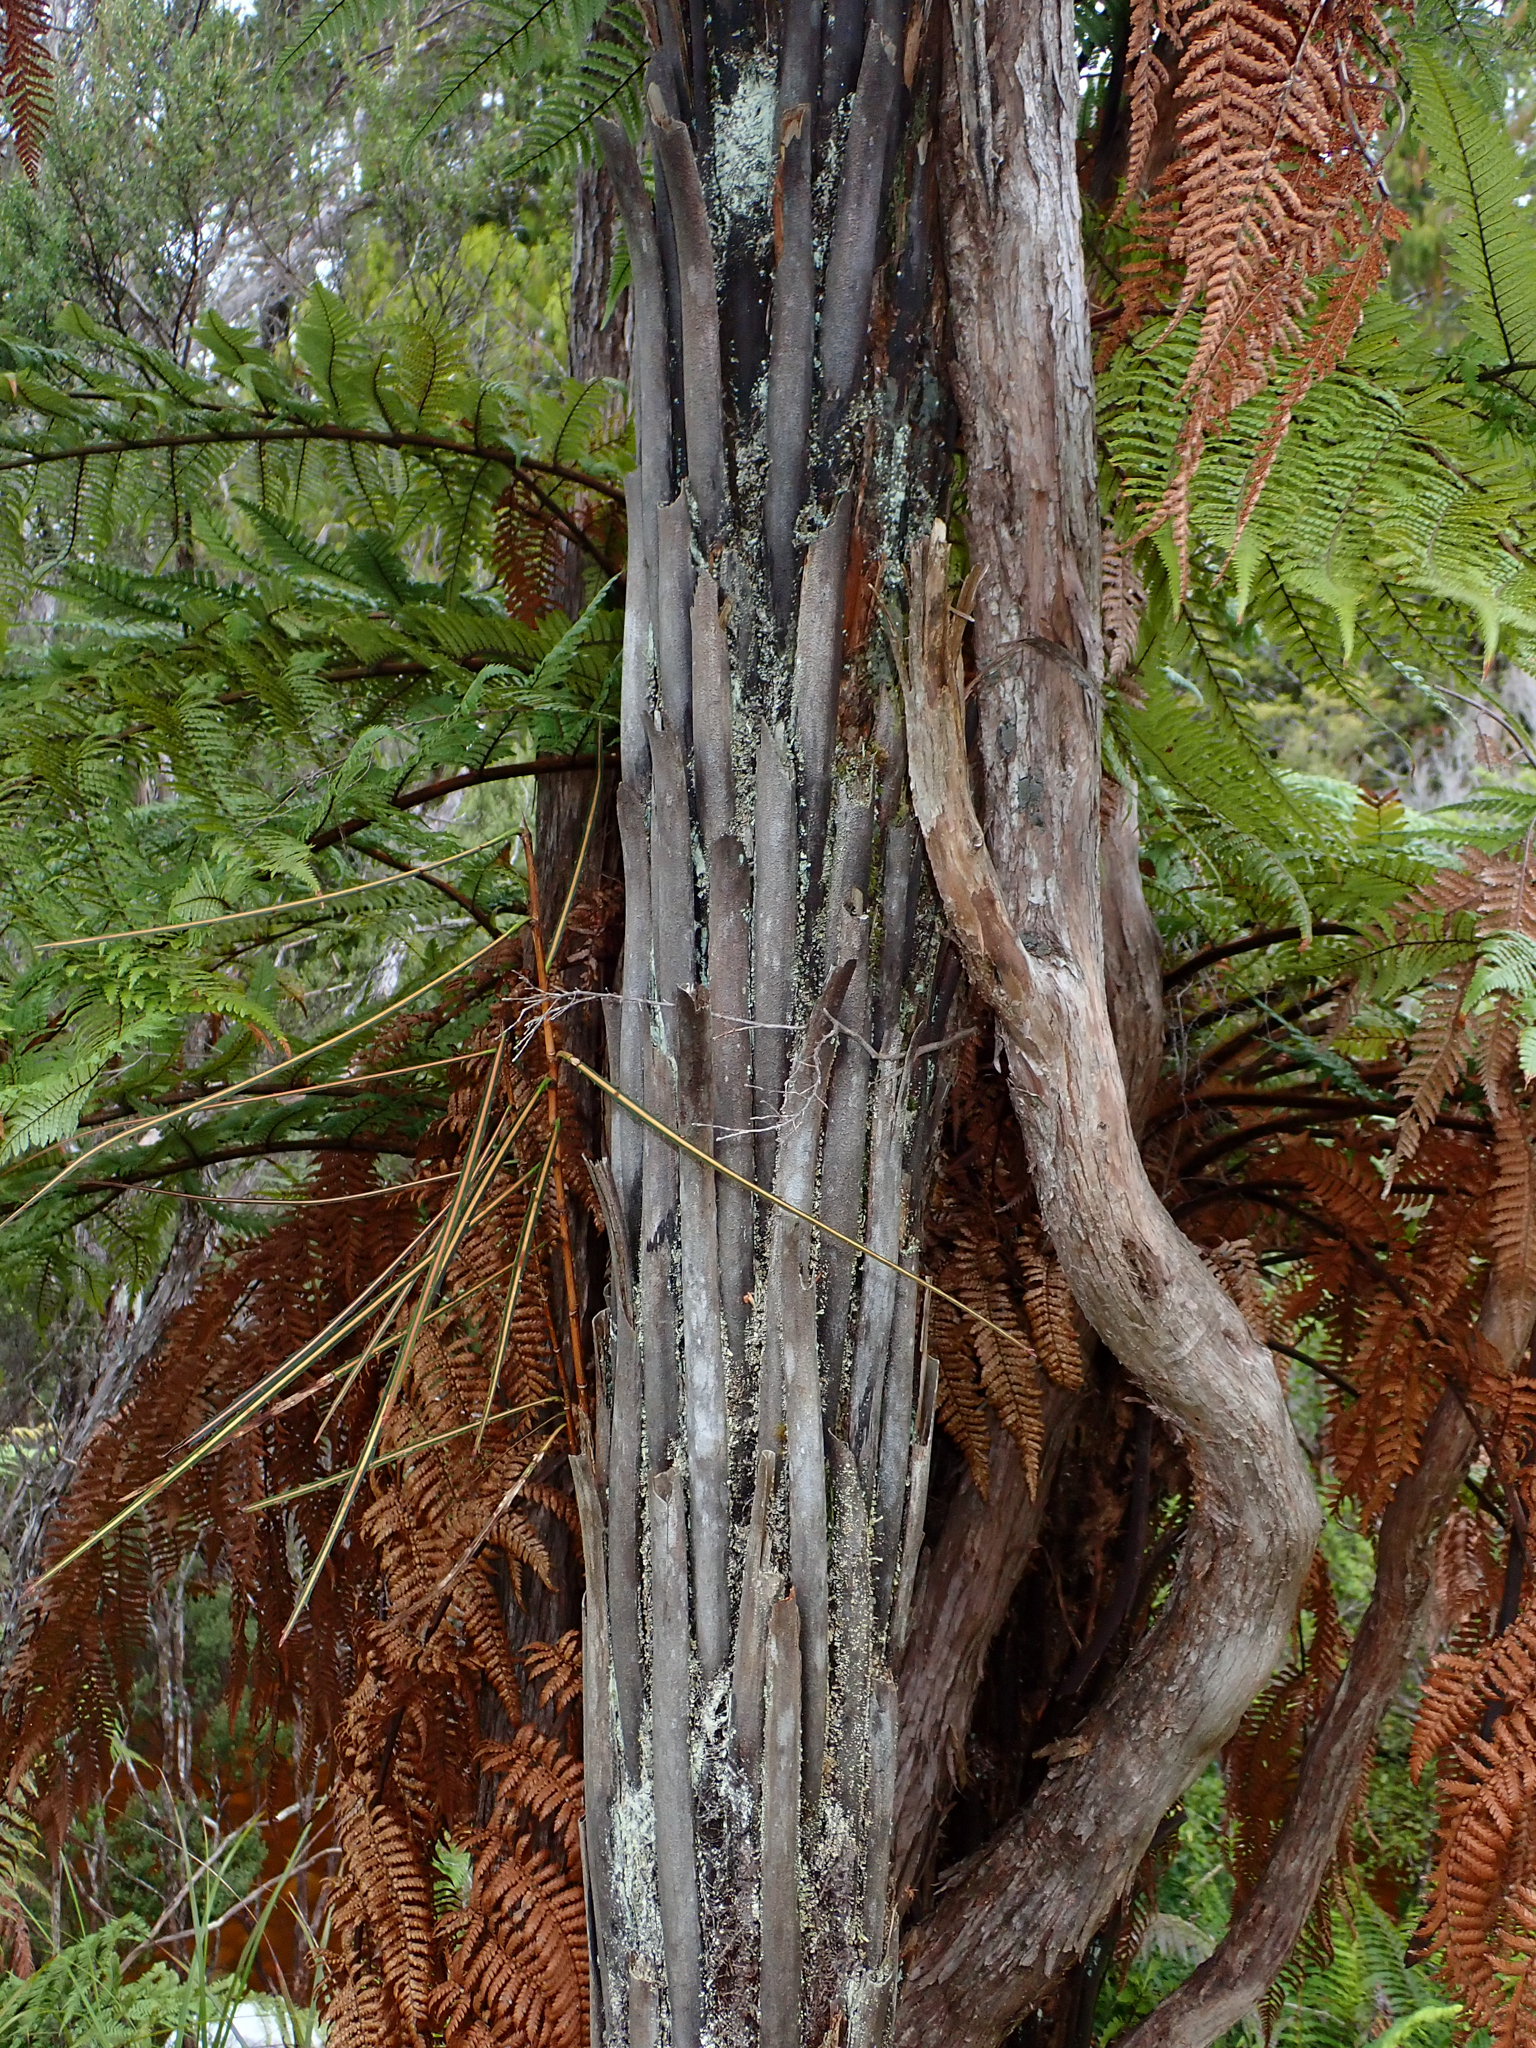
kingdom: Plantae
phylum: Tracheophyta
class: Polypodiopsida
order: Cyatheales
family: Dicksoniaceae
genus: Dicksonia
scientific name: Dicksonia squarrosa
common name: Hard treefern
